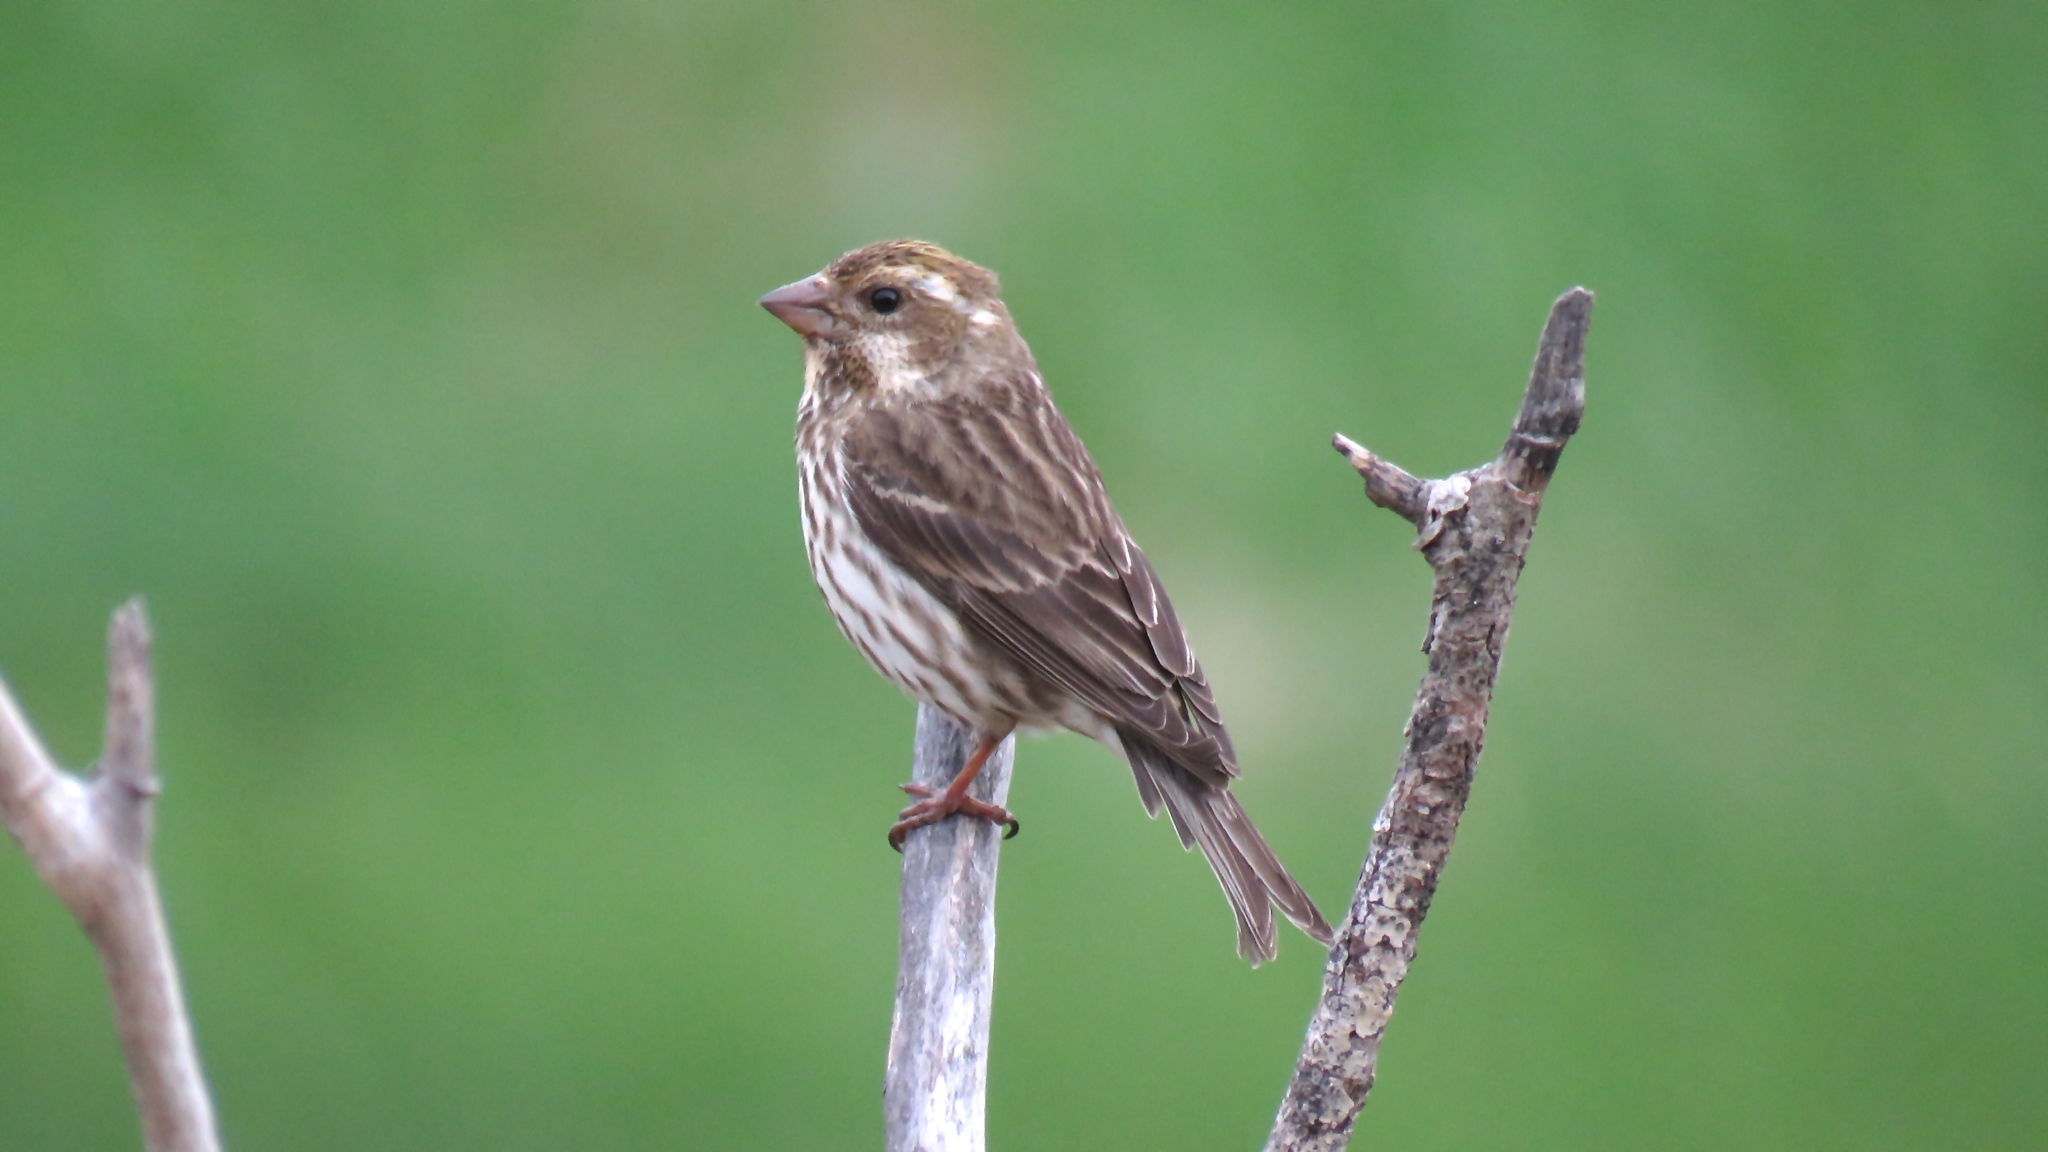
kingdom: Animalia
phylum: Chordata
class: Aves
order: Passeriformes
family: Fringillidae
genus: Haemorhous
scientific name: Haemorhous purpureus
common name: Purple finch
